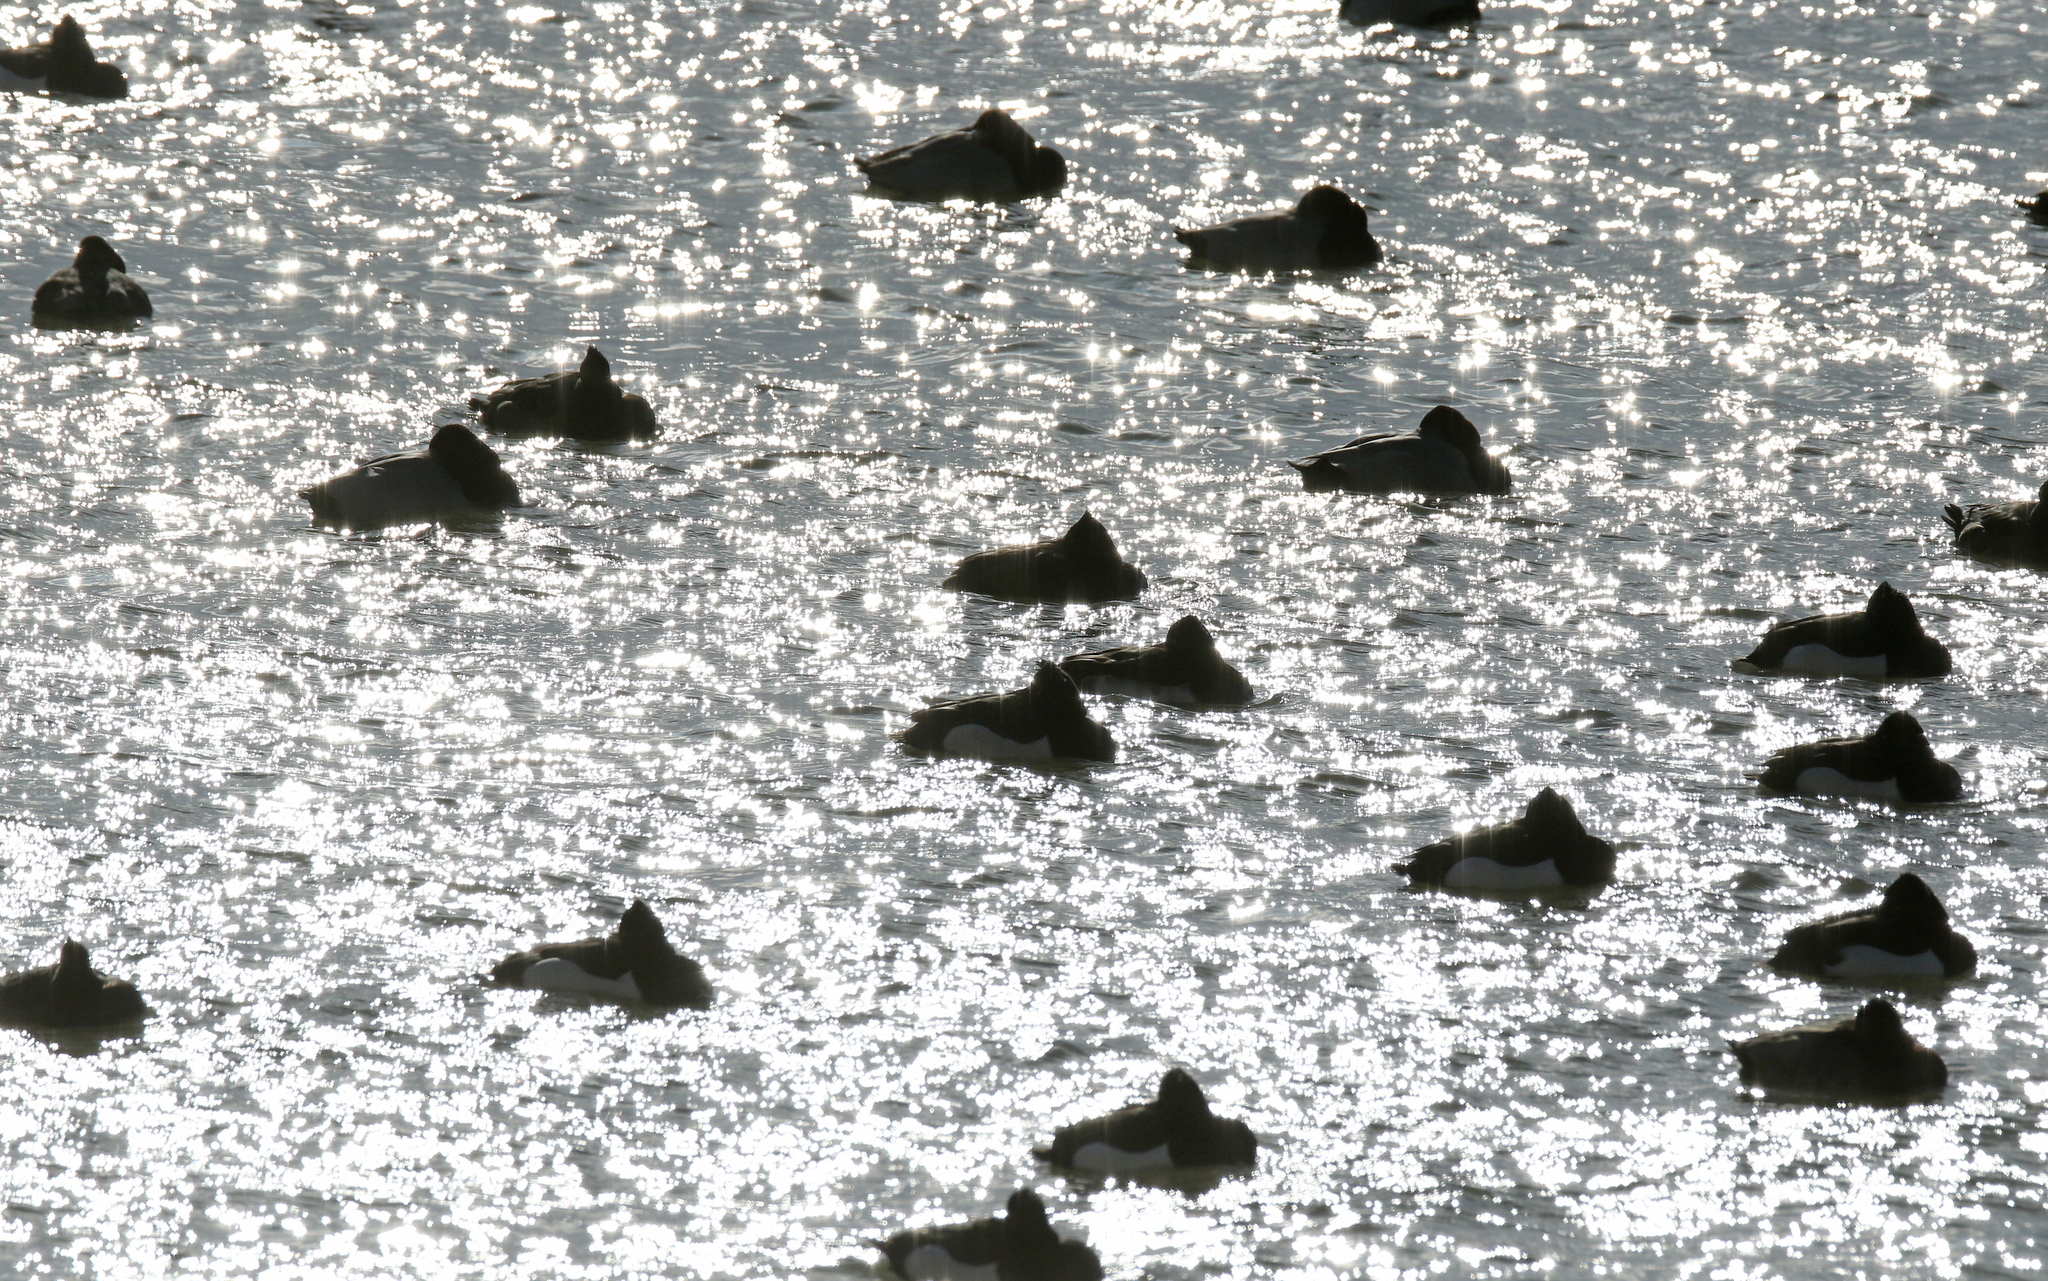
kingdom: Animalia
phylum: Chordata
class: Aves
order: Anseriformes
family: Anatidae
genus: Aythya
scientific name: Aythya fuligula
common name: Tufted duck
